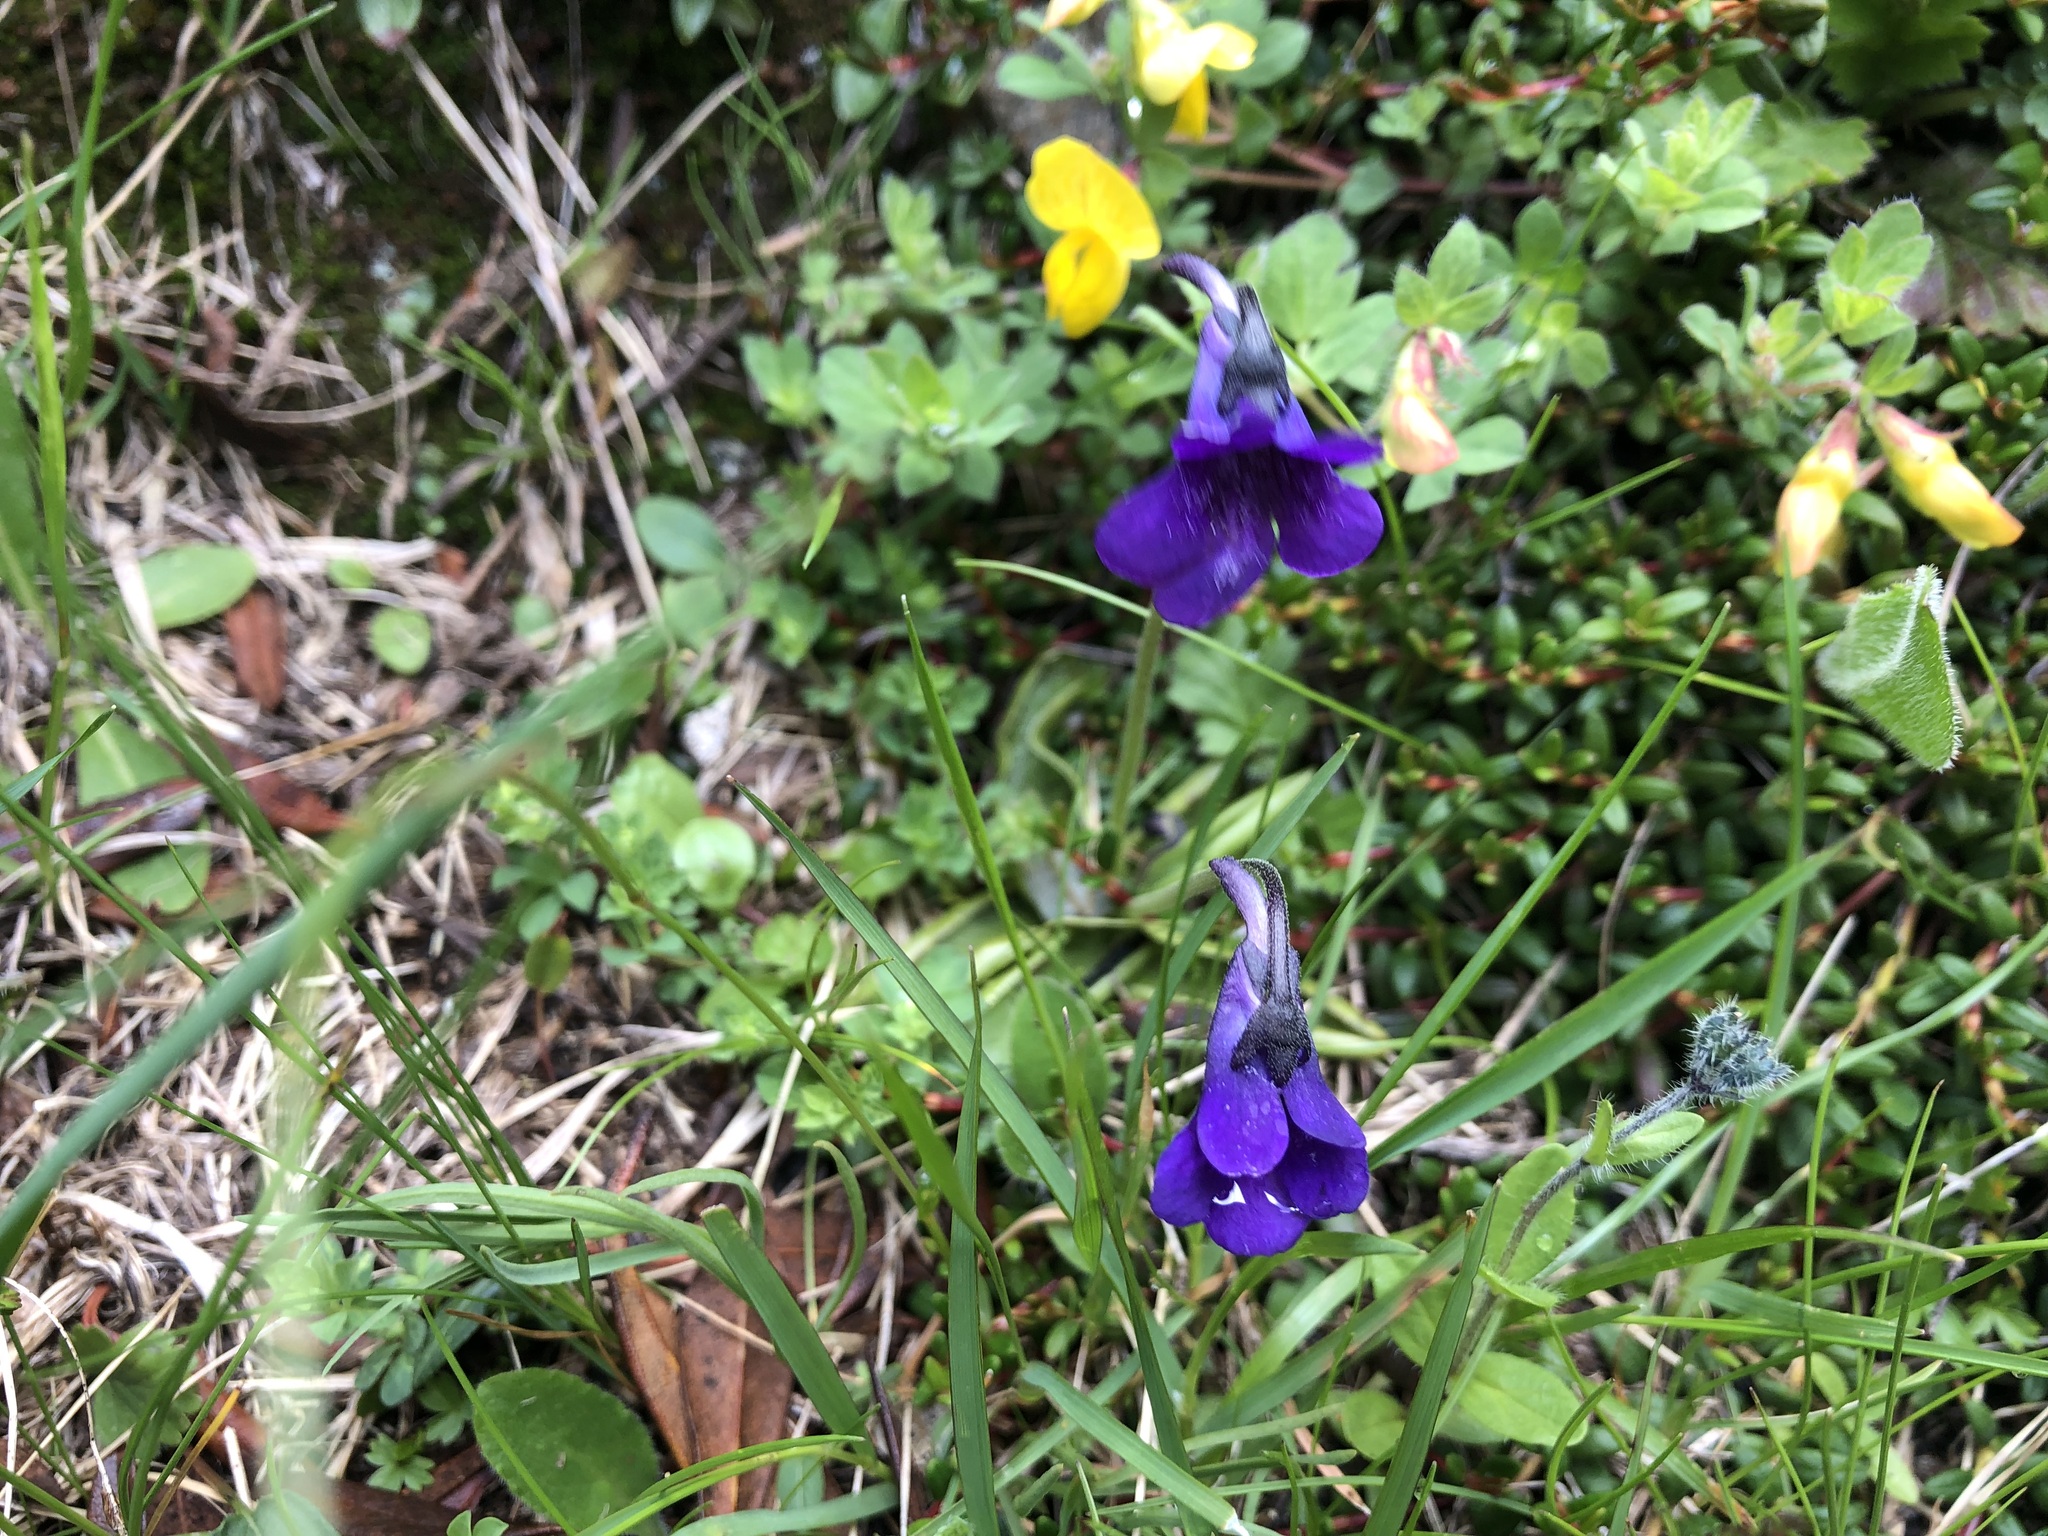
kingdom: Plantae
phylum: Tracheophyta
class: Magnoliopsida
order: Lamiales
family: Lentibulariaceae
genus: Pinguicula
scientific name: Pinguicula leptoceras
